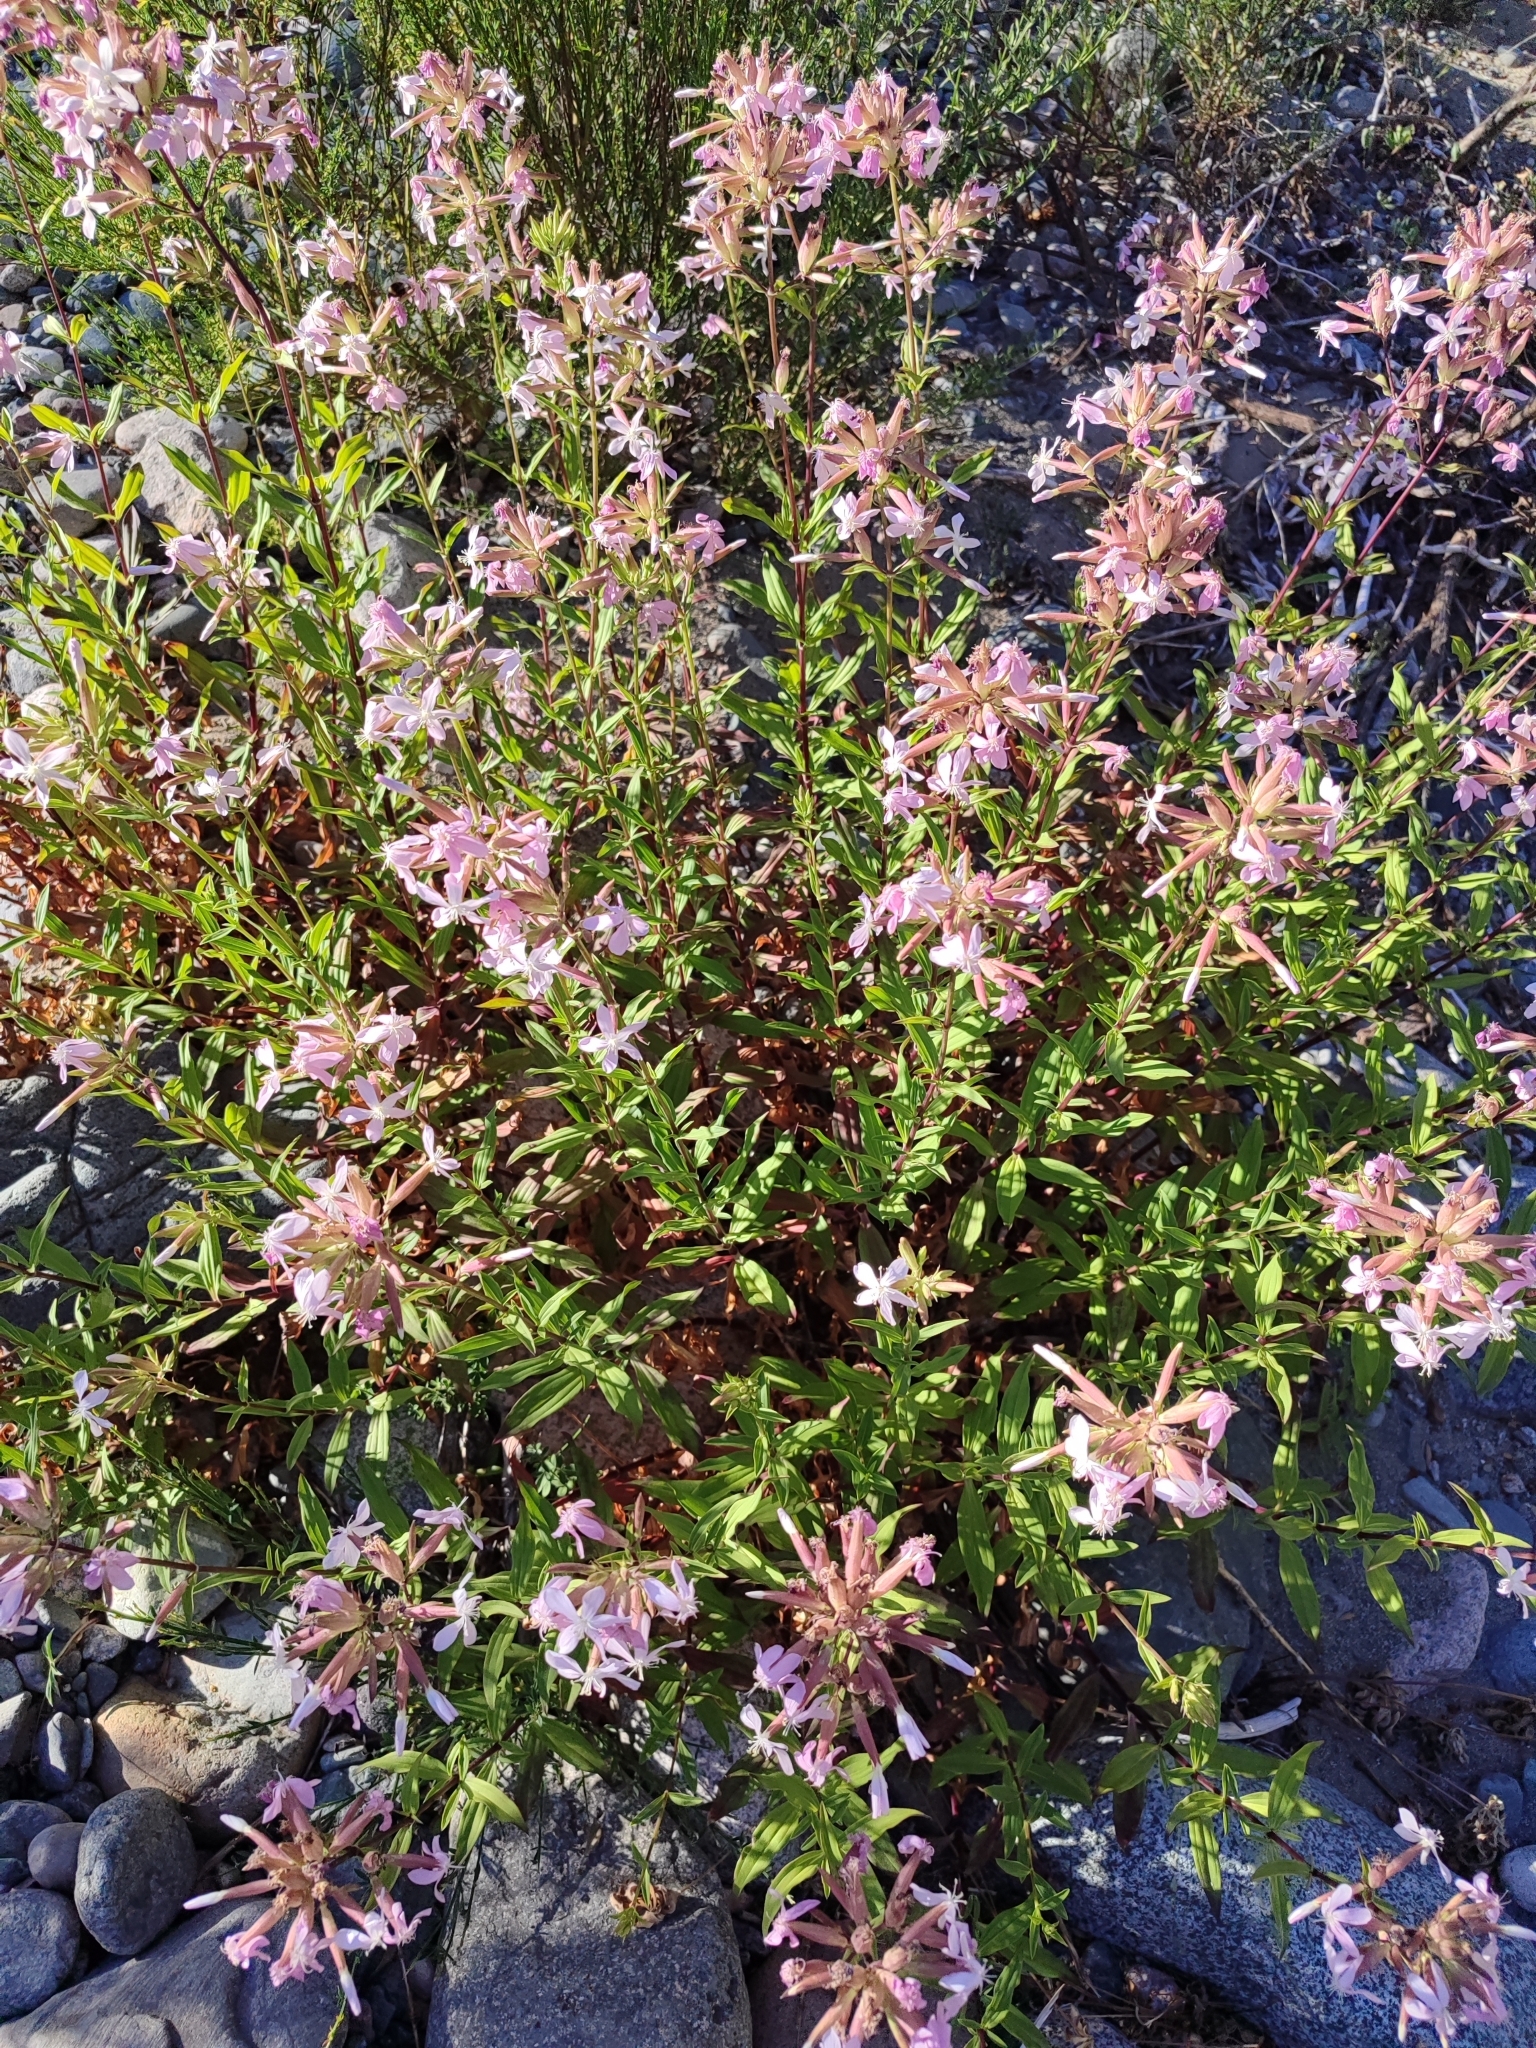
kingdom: Plantae
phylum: Tracheophyta
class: Magnoliopsida
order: Caryophyllales
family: Caryophyllaceae
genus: Saponaria
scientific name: Saponaria officinalis
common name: Soapwort
